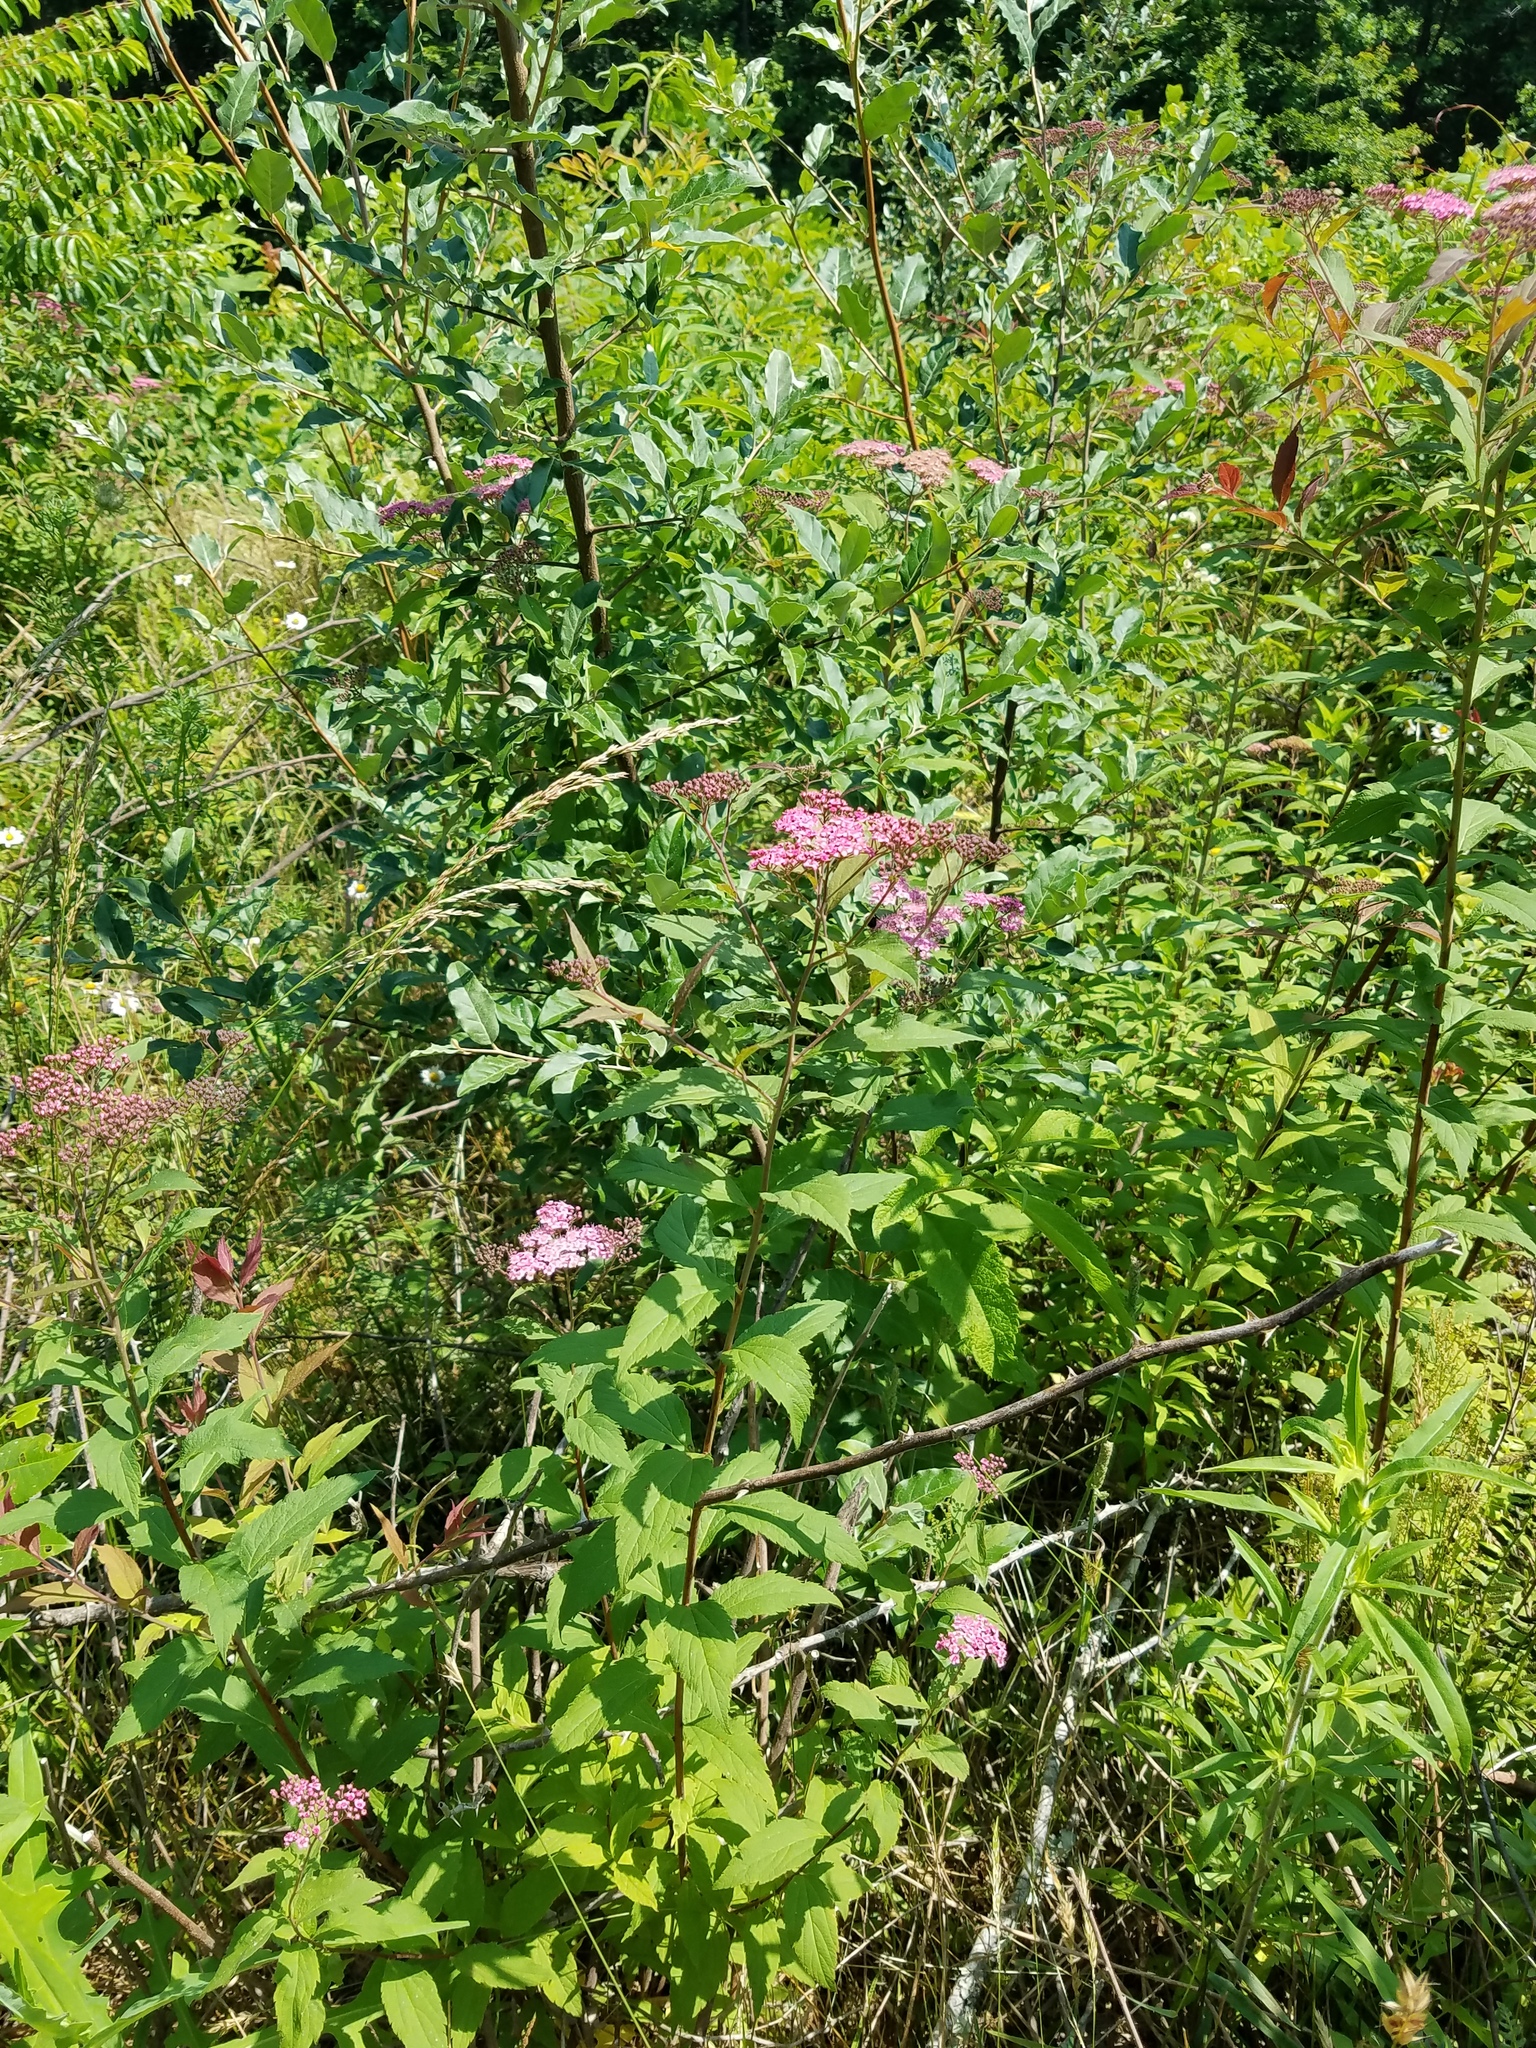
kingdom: Plantae
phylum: Tracheophyta
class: Magnoliopsida
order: Rosales
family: Rosaceae
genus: Spiraea
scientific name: Spiraea japonica
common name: Japanese spiraea
